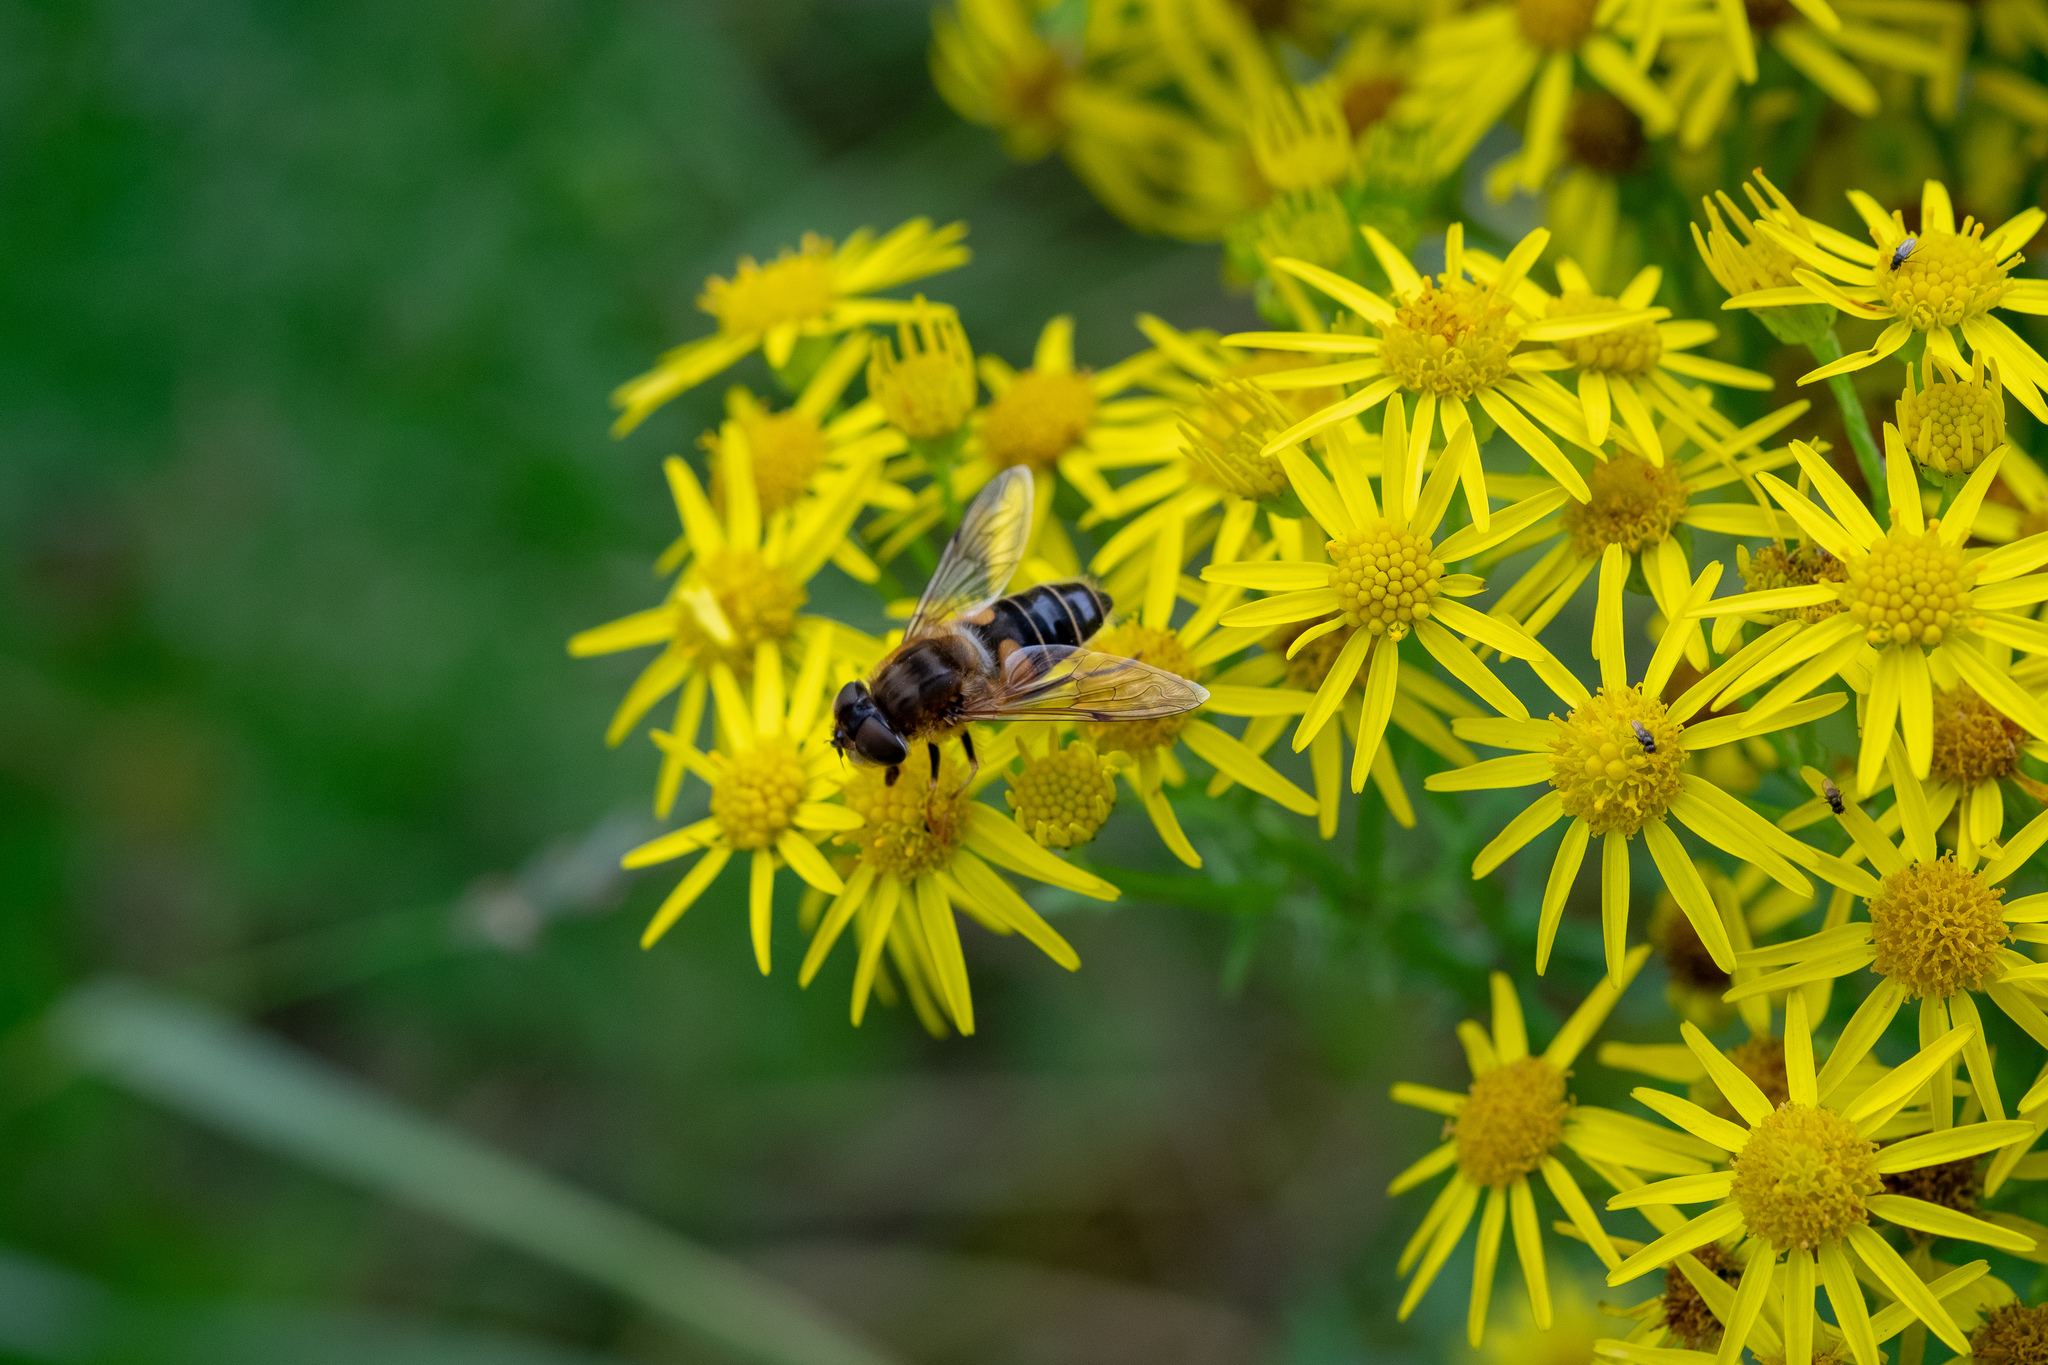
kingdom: Animalia
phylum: Arthropoda
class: Insecta
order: Diptera
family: Syrphidae
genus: Eristalis
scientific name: Eristalis pertinax
